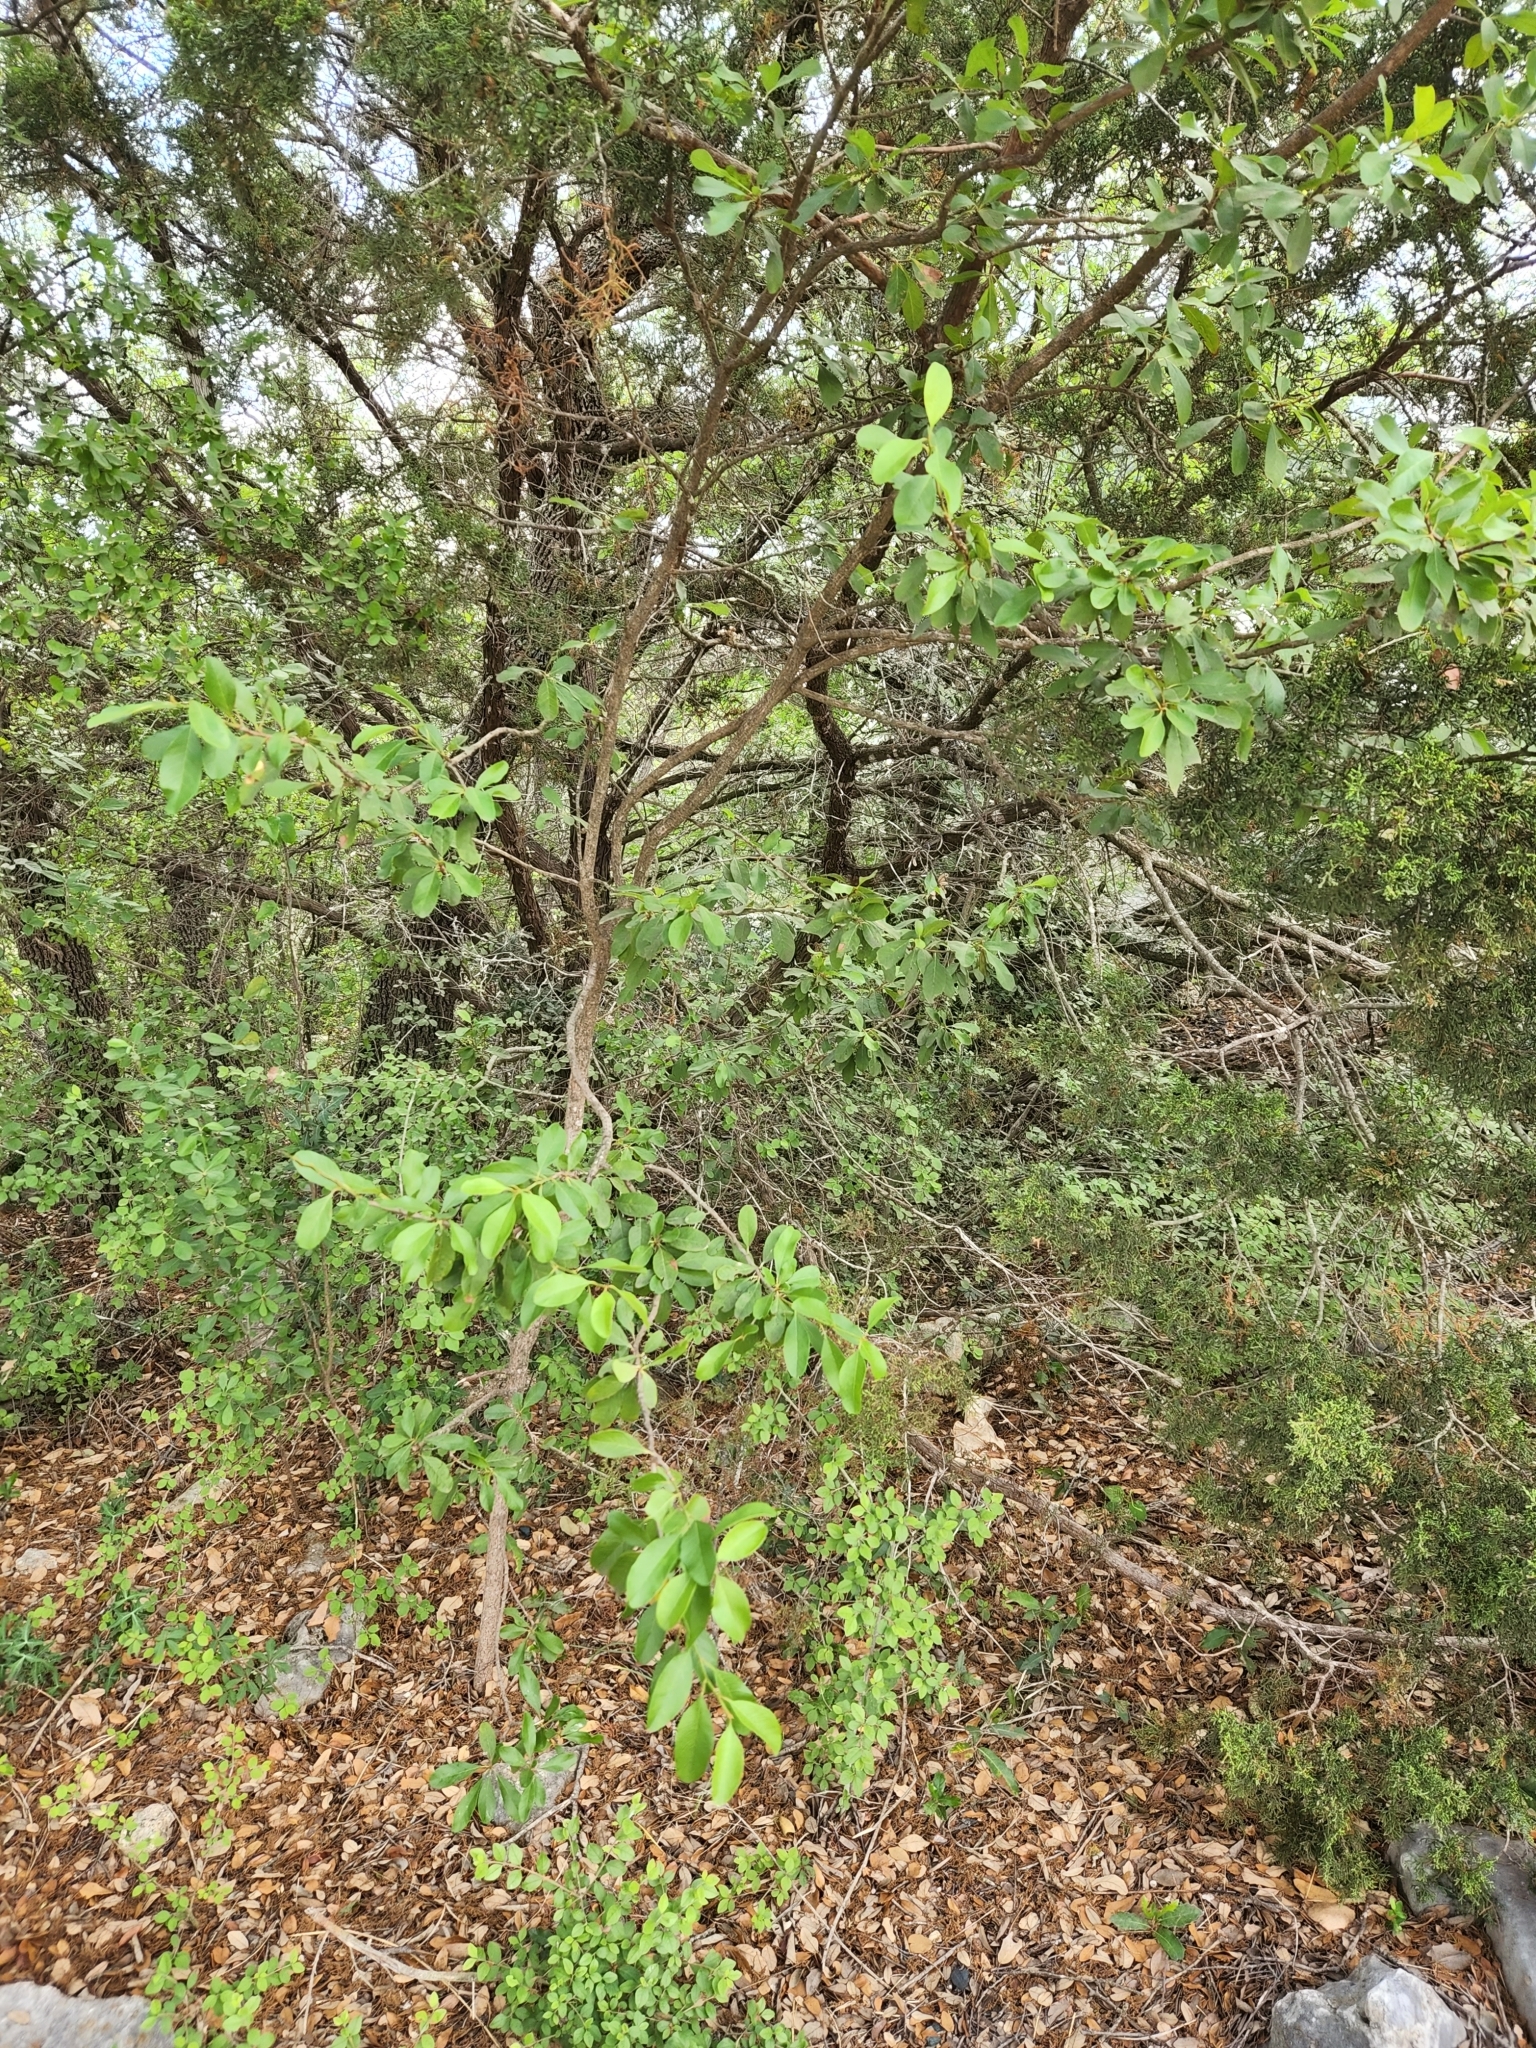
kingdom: Plantae
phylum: Tracheophyta
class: Magnoliopsida
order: Ericales
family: Sapotaceae
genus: Sideroxylon
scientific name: Sideroxylon lanuginosum
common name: Chittamwood
